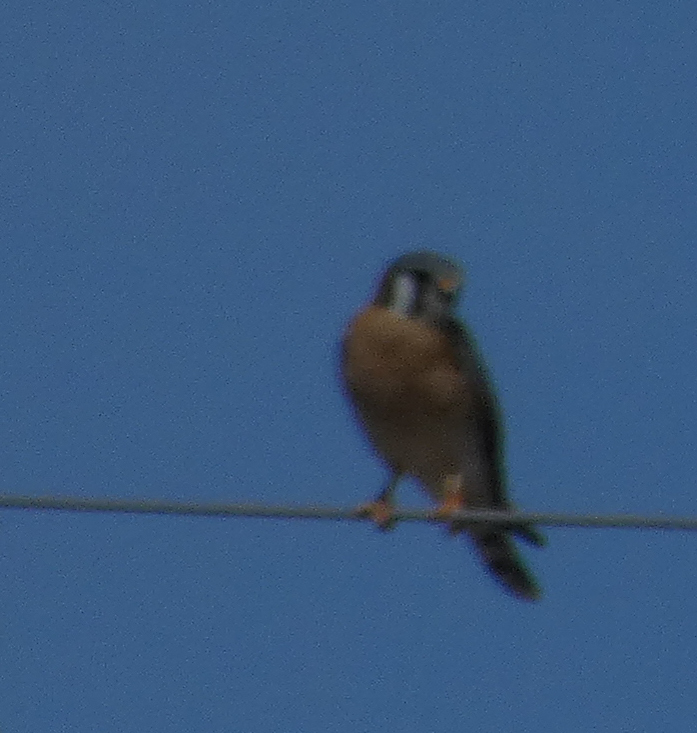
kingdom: Animalia
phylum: Chordata
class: Aves
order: Falconiformes
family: Falconidae
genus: Falco
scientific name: Falco sparverius
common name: American kestrel
